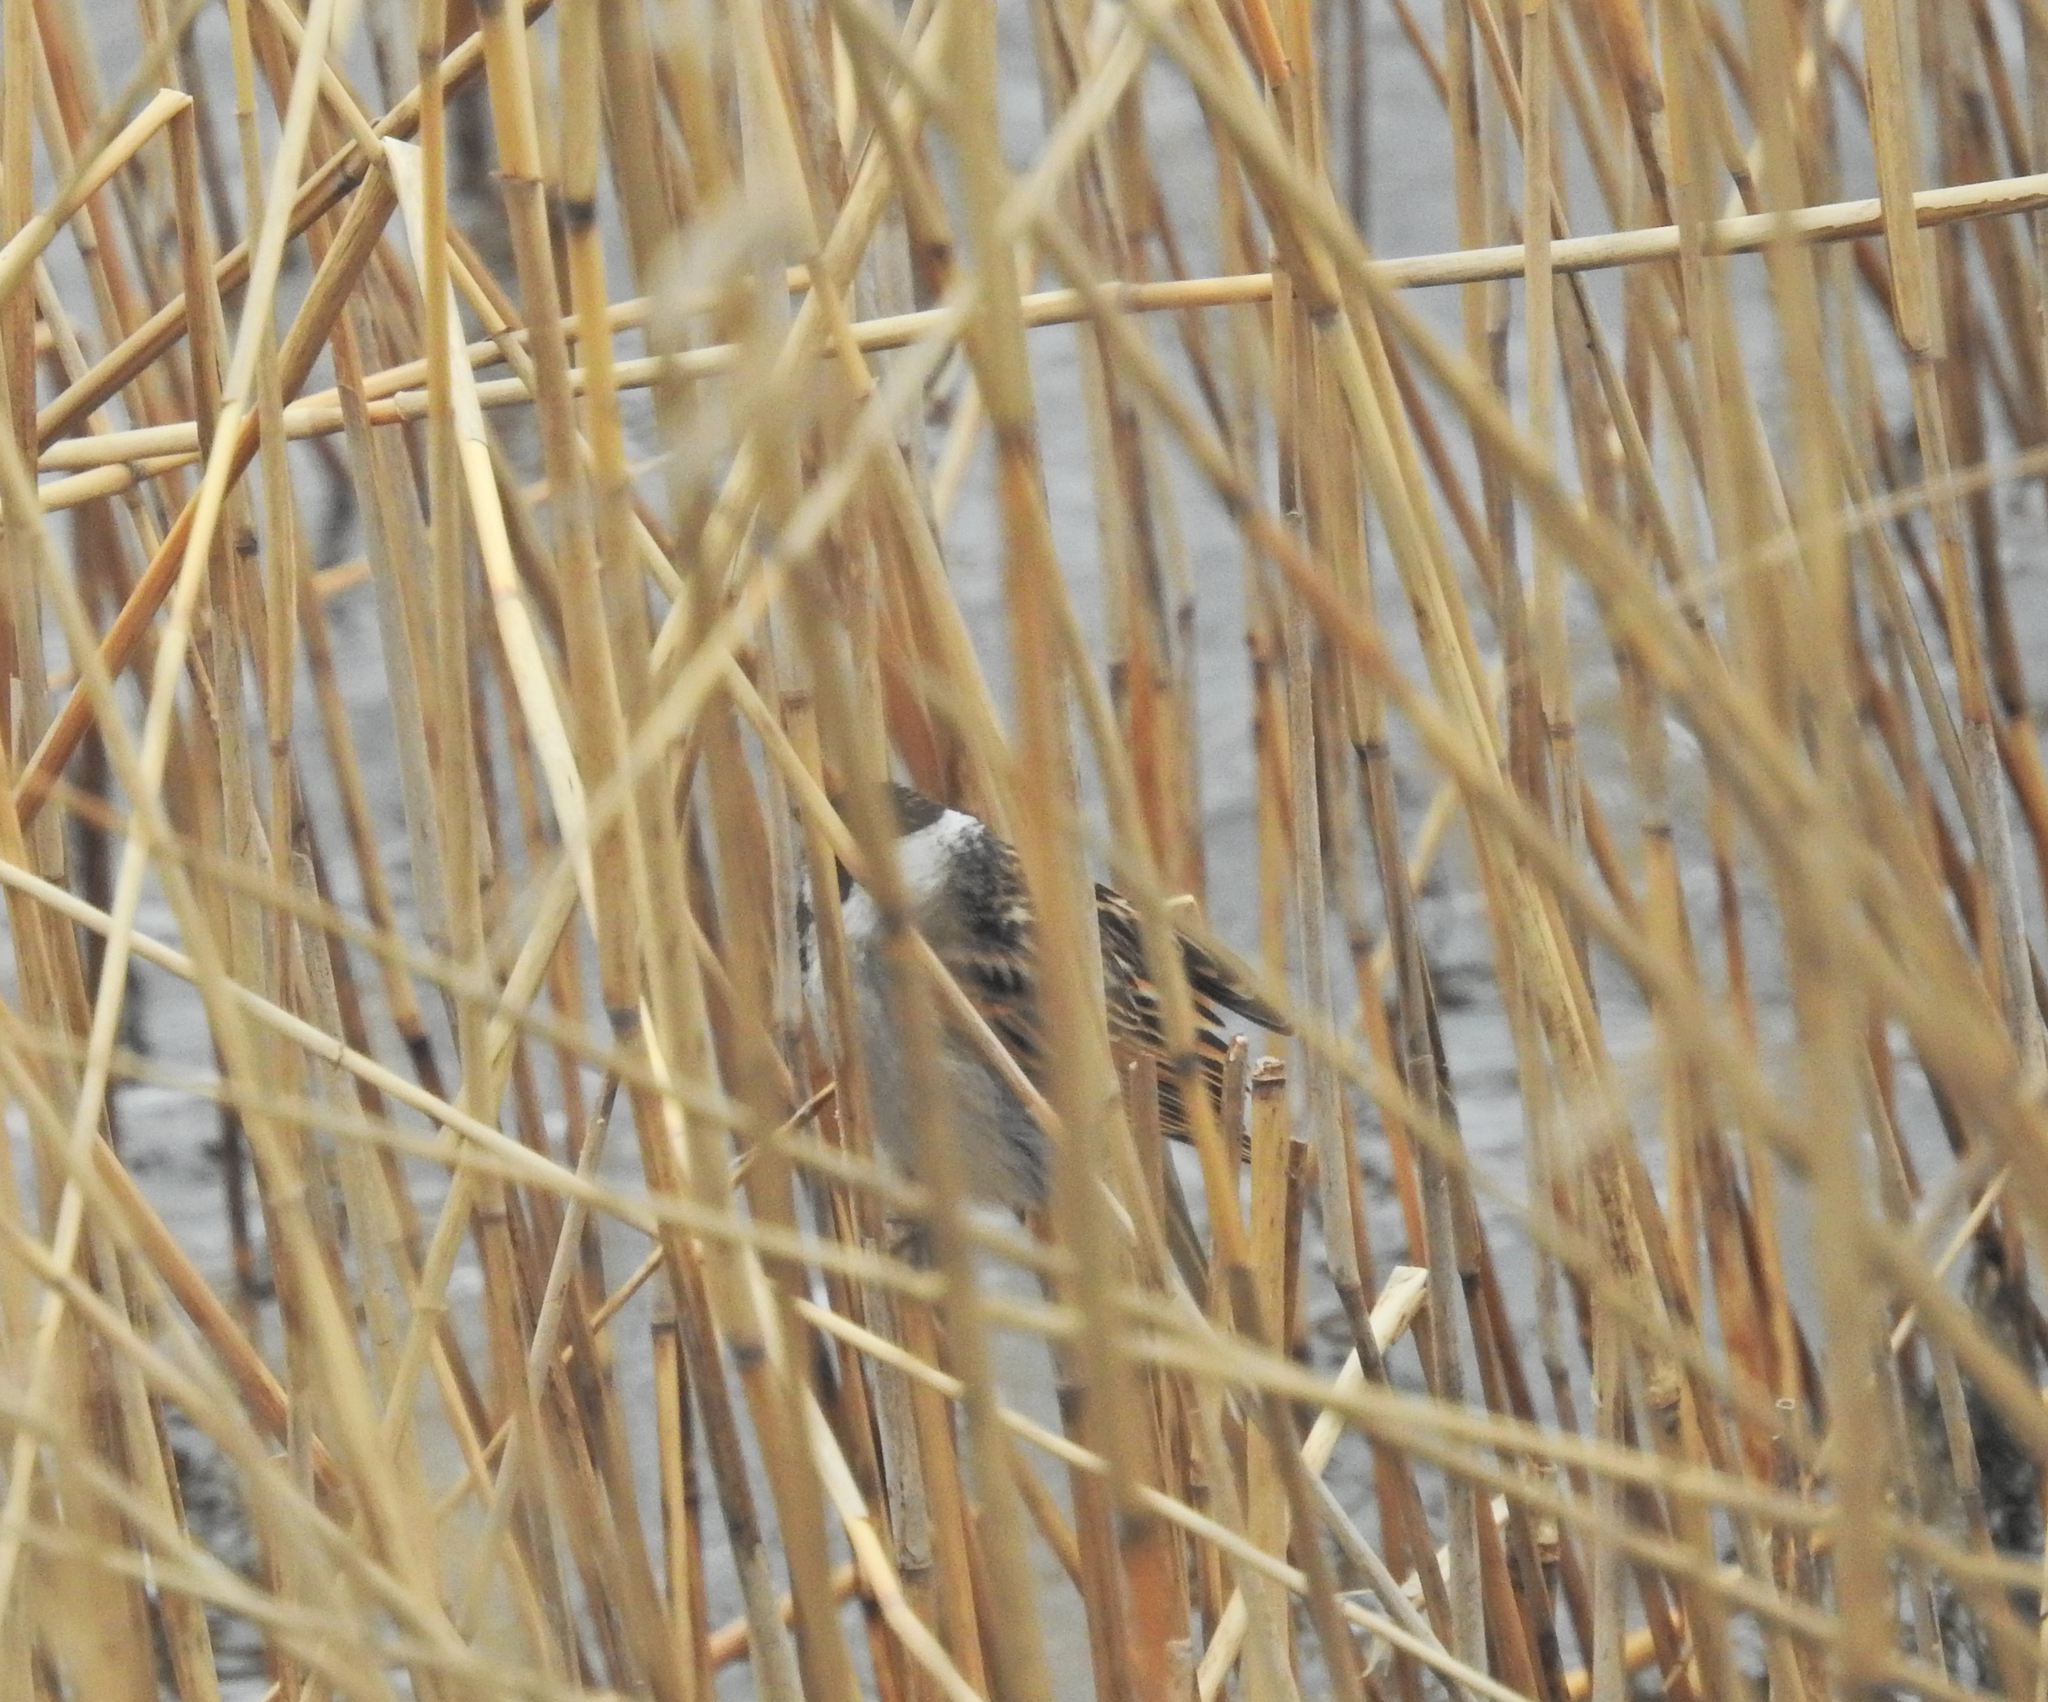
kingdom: Animalia
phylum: Chordata
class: Aves
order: Passeriformes
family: Emberizidae
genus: Emberiza
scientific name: Emberiza schoeniclus
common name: Reed bunting
